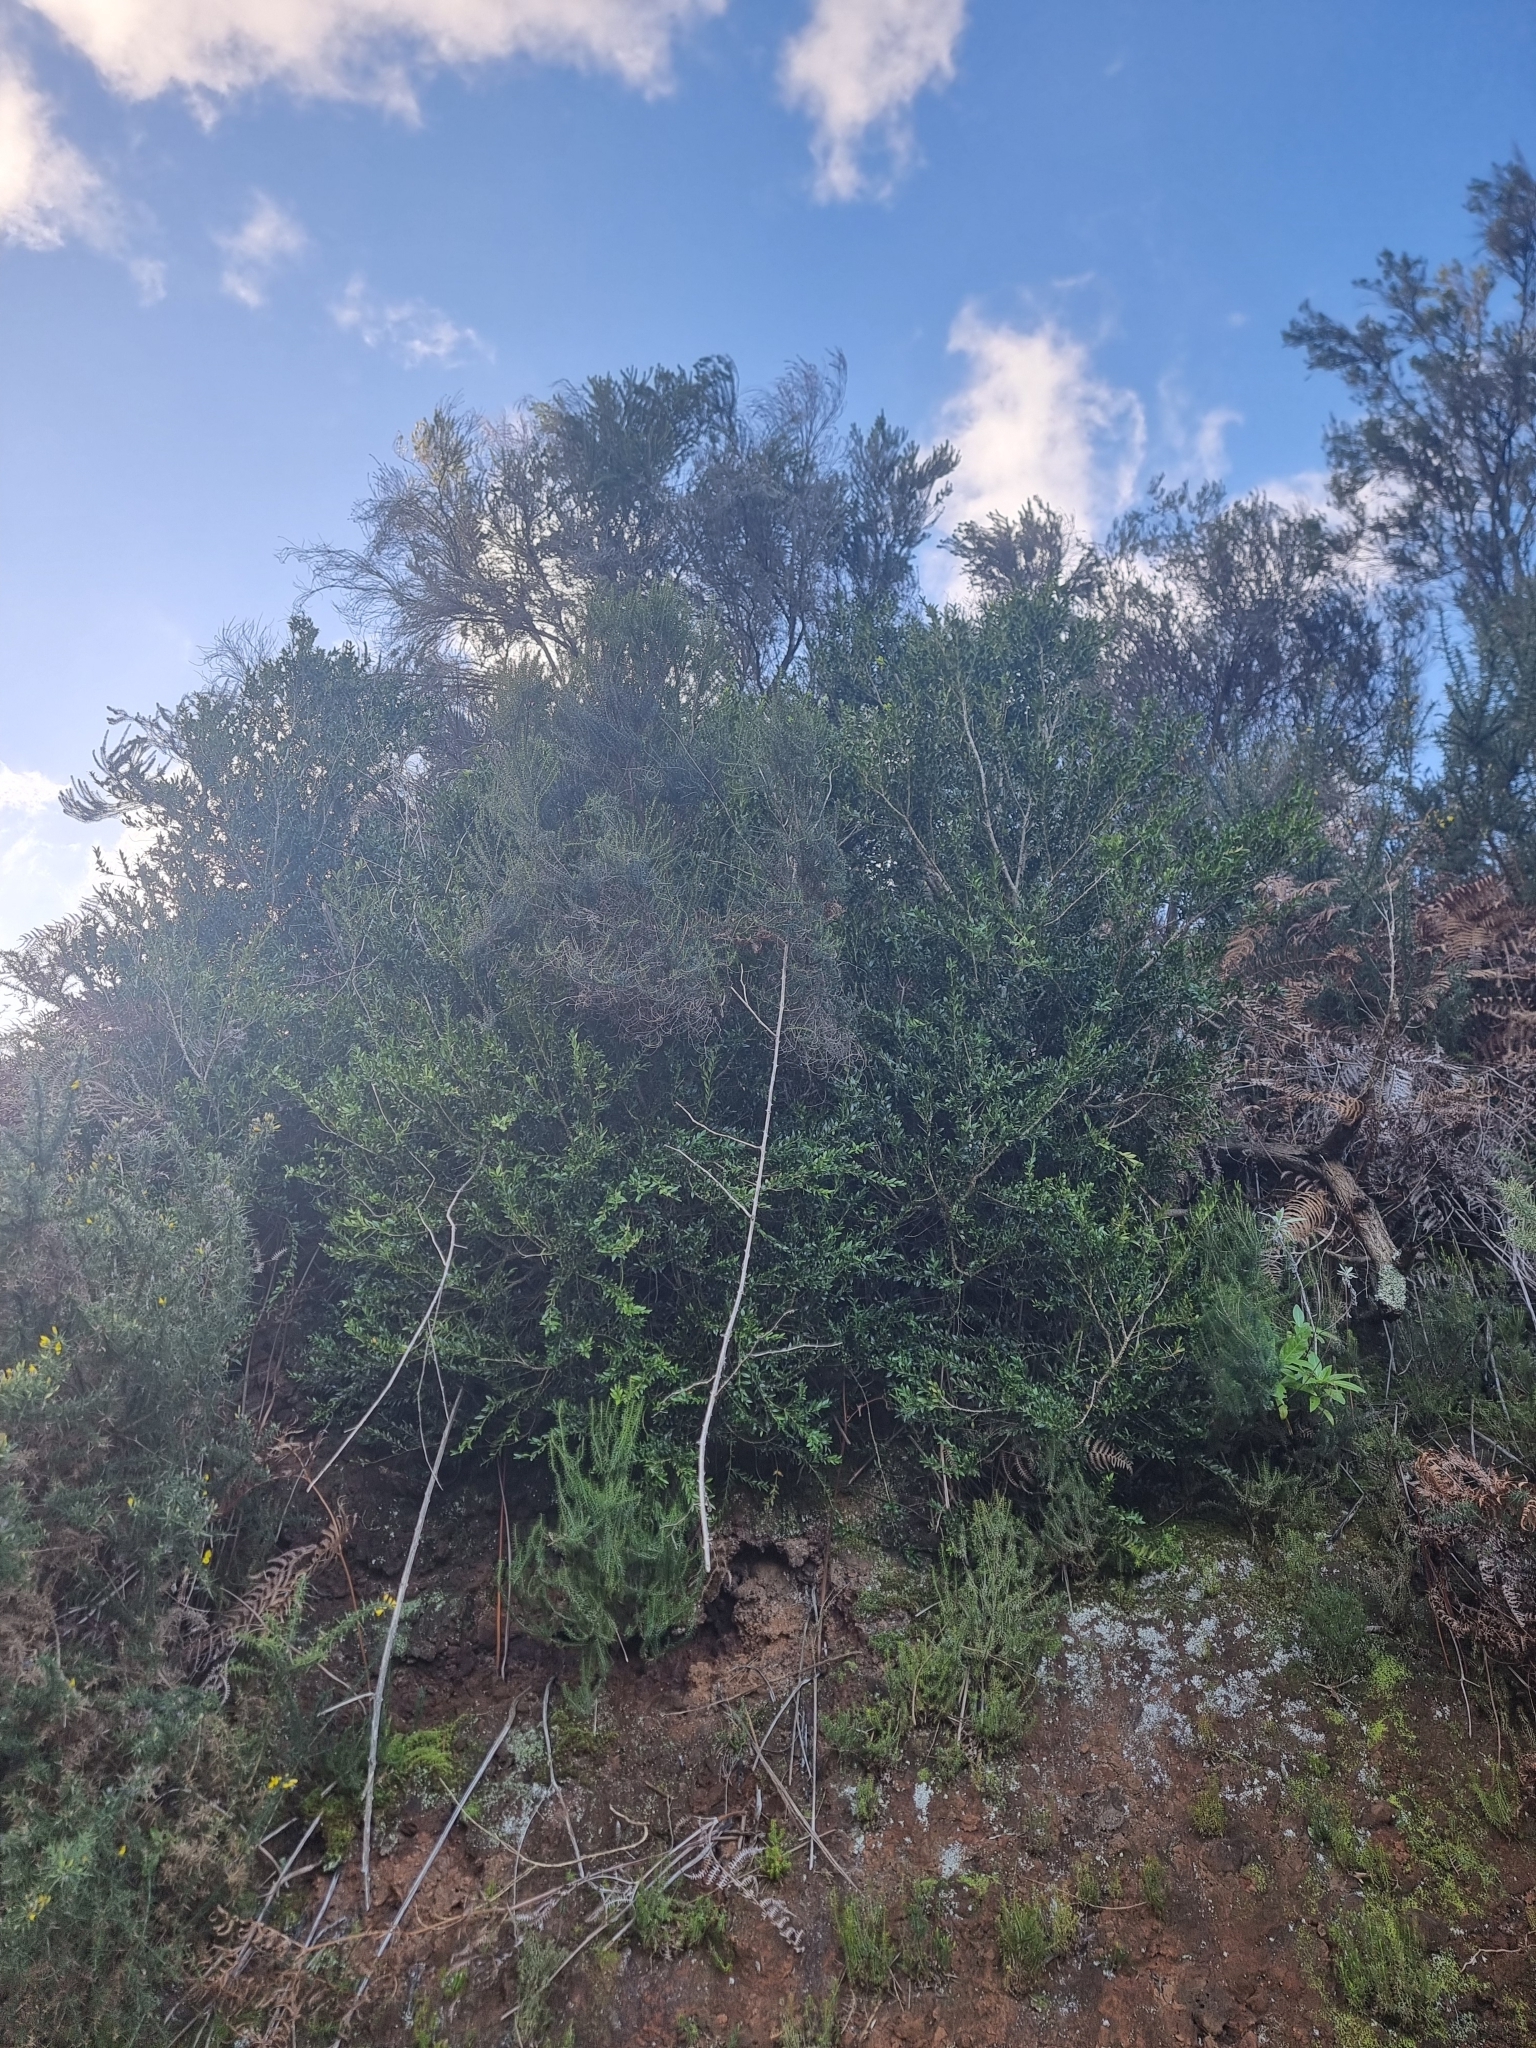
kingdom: Plantae
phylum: Tracheophyta
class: Magnoliopsida
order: Buxales
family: Buxaceae
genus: Buxus
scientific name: Buxus sempervirens
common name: Box
